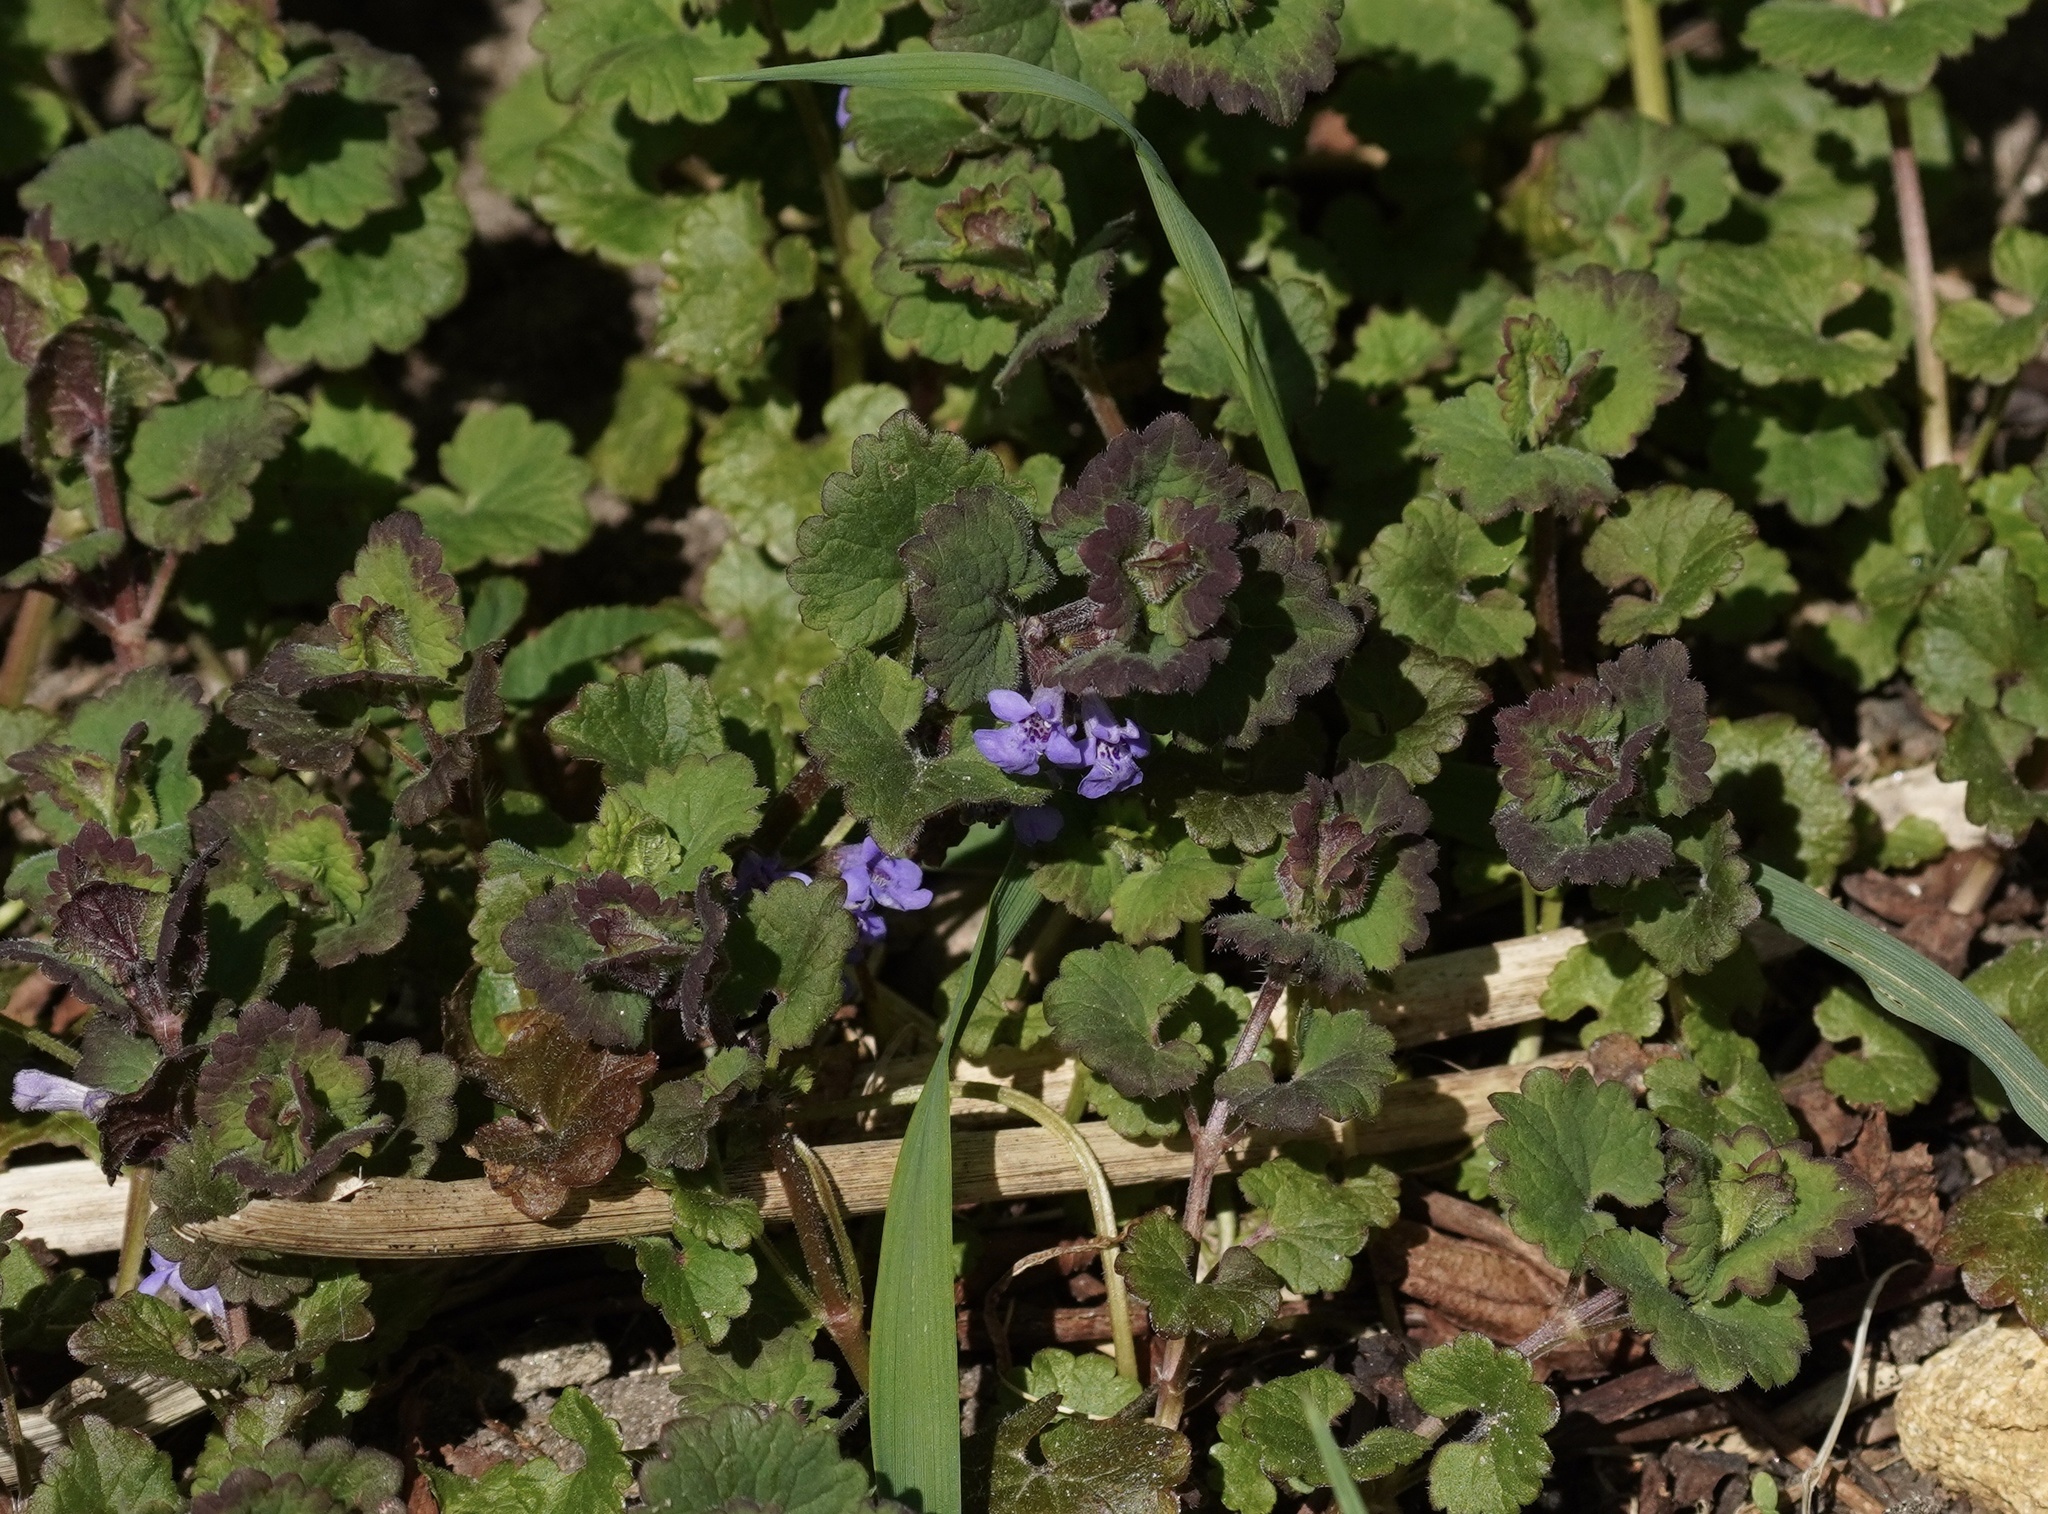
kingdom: Plantae
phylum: Tracheophyta
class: Magnoliopsida
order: Lamiales
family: Lamiaceae
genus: Glechoma
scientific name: Glechoma hederacea
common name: Ground ivy
